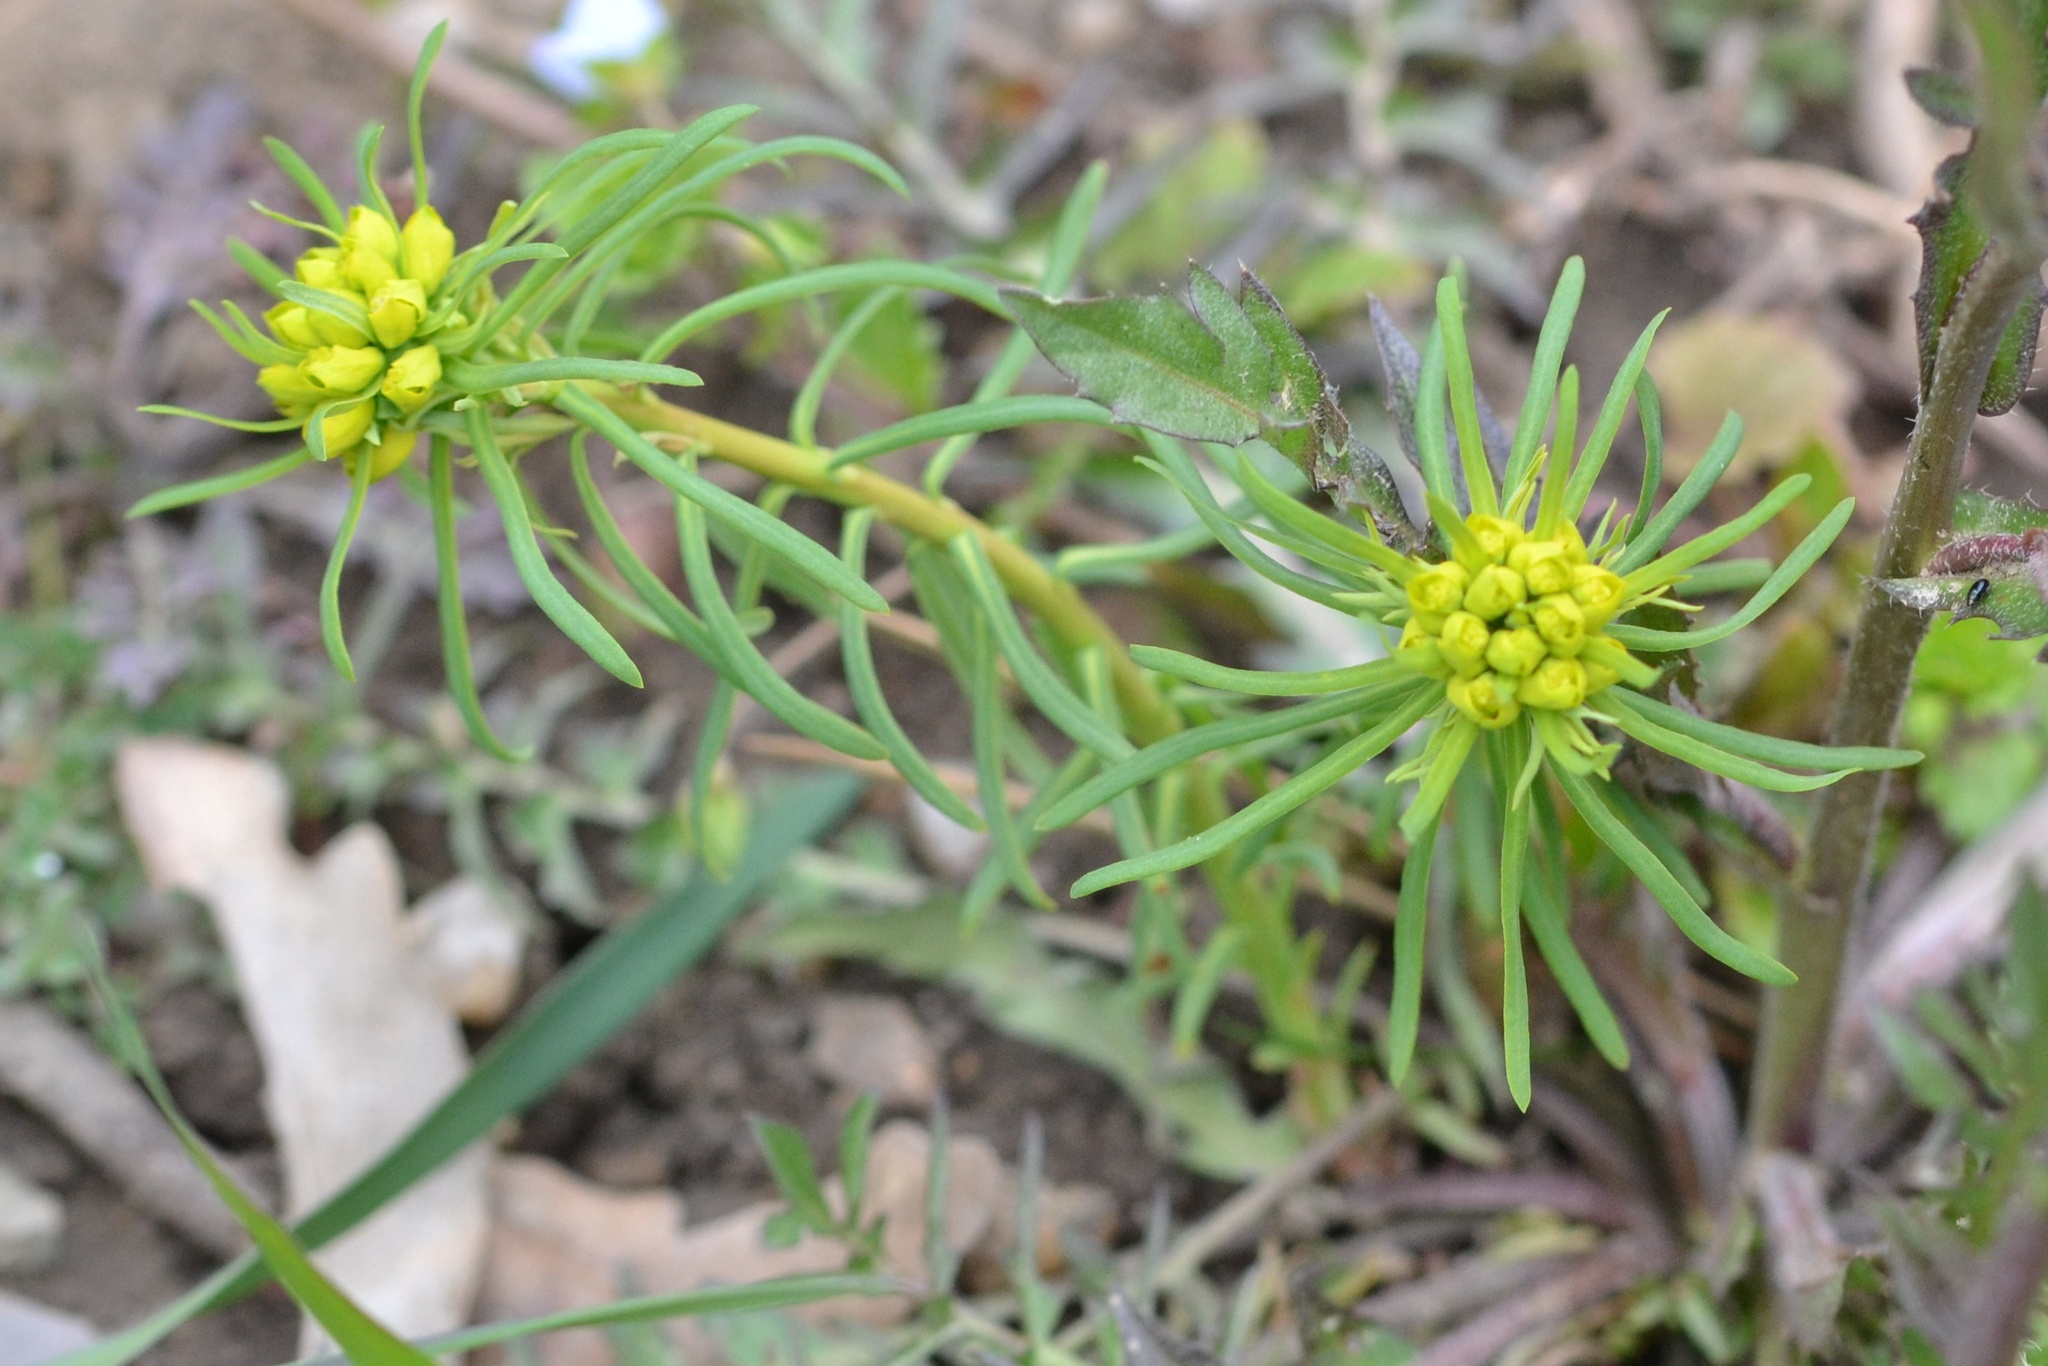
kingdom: Plantae
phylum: Tracheophyta
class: Magnoliopsida
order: Malpighiales
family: Euphorbiaceae
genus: Euphorbia
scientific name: Euphorbia cyparissias
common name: Cypress spurge
